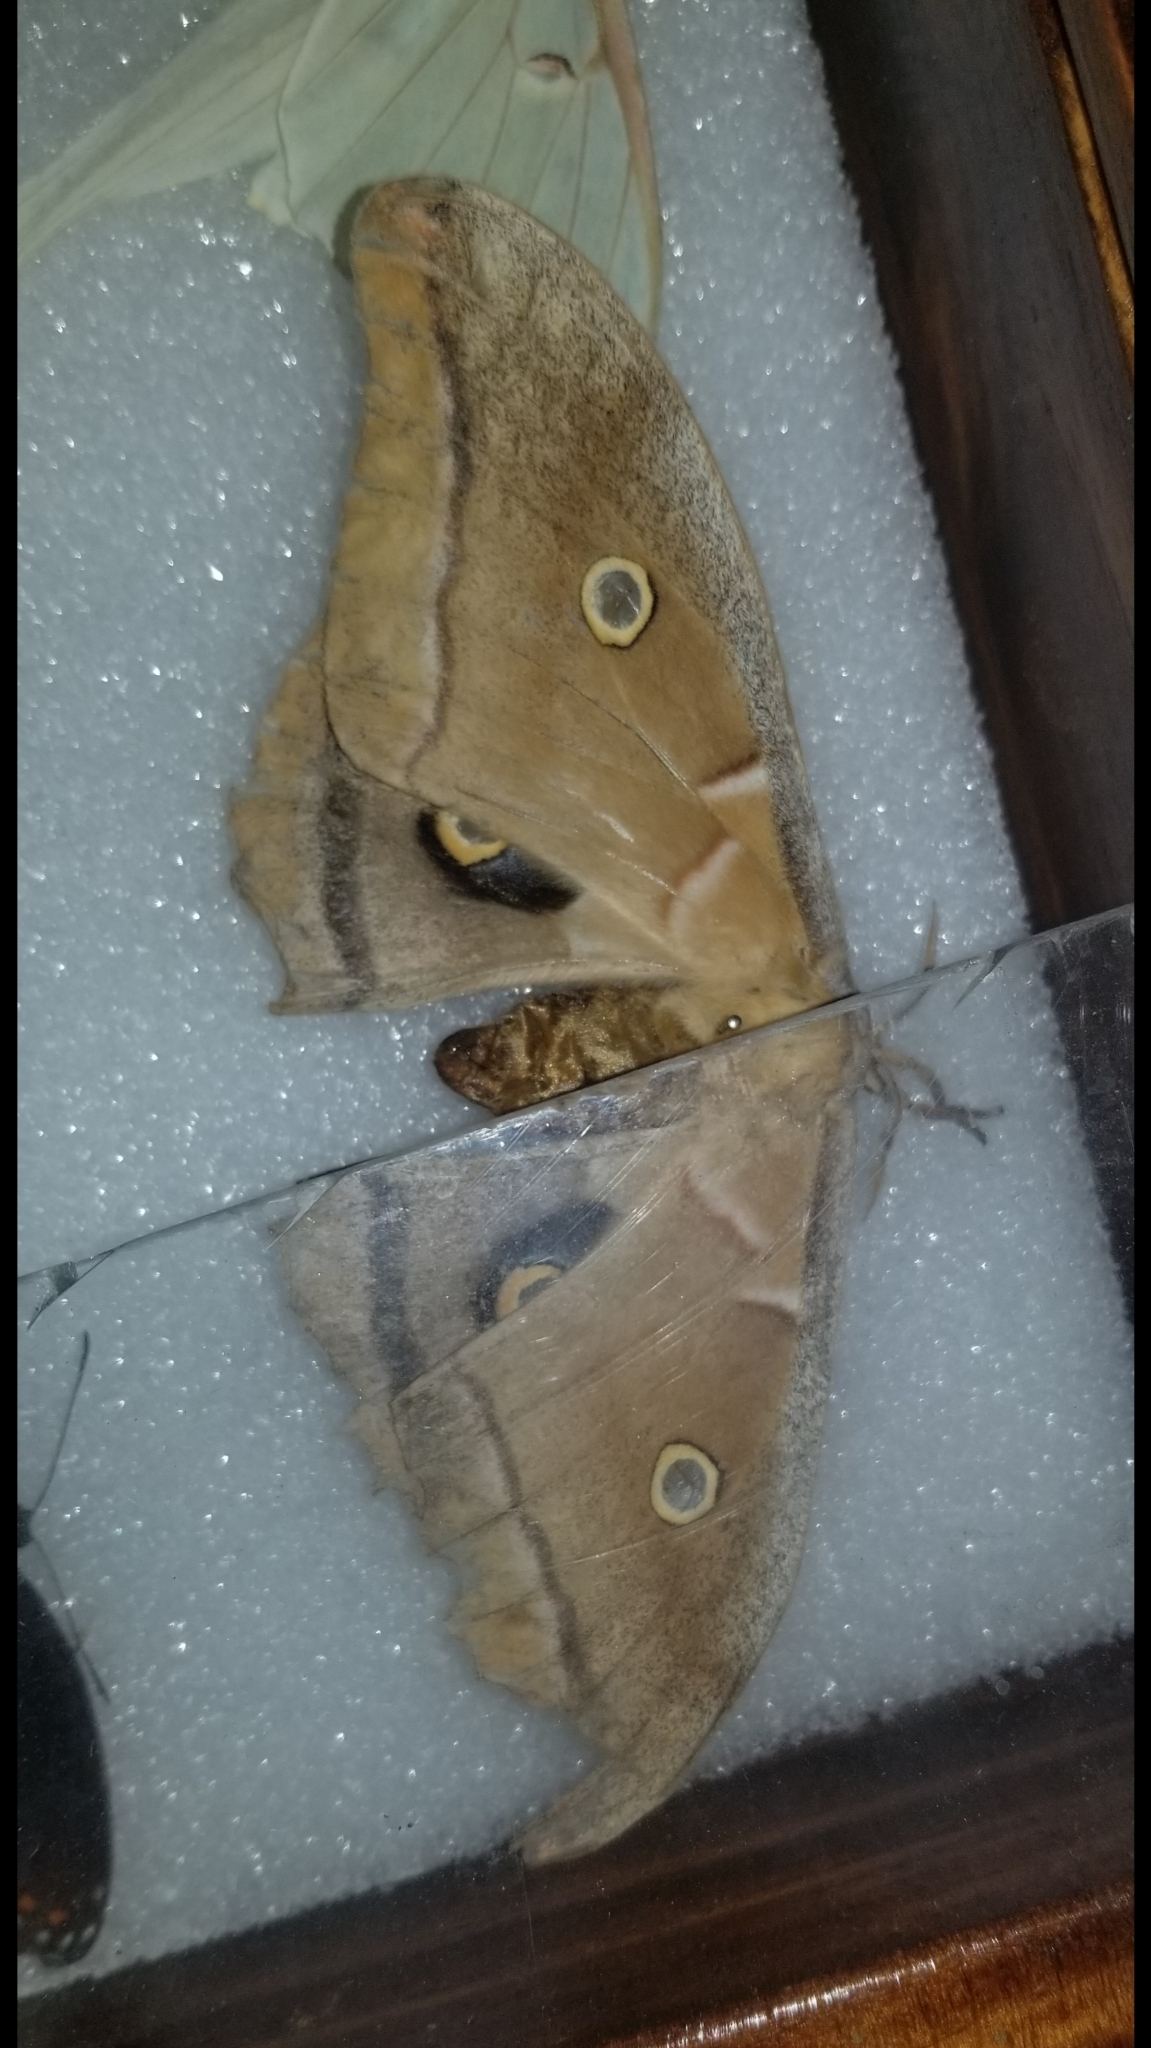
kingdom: Animalia
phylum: Arthropoda
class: Insecta
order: Lepidoptera
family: Saturniidae
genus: Antheraea
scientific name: Antheraea polyphemus
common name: Polyphemus moth
